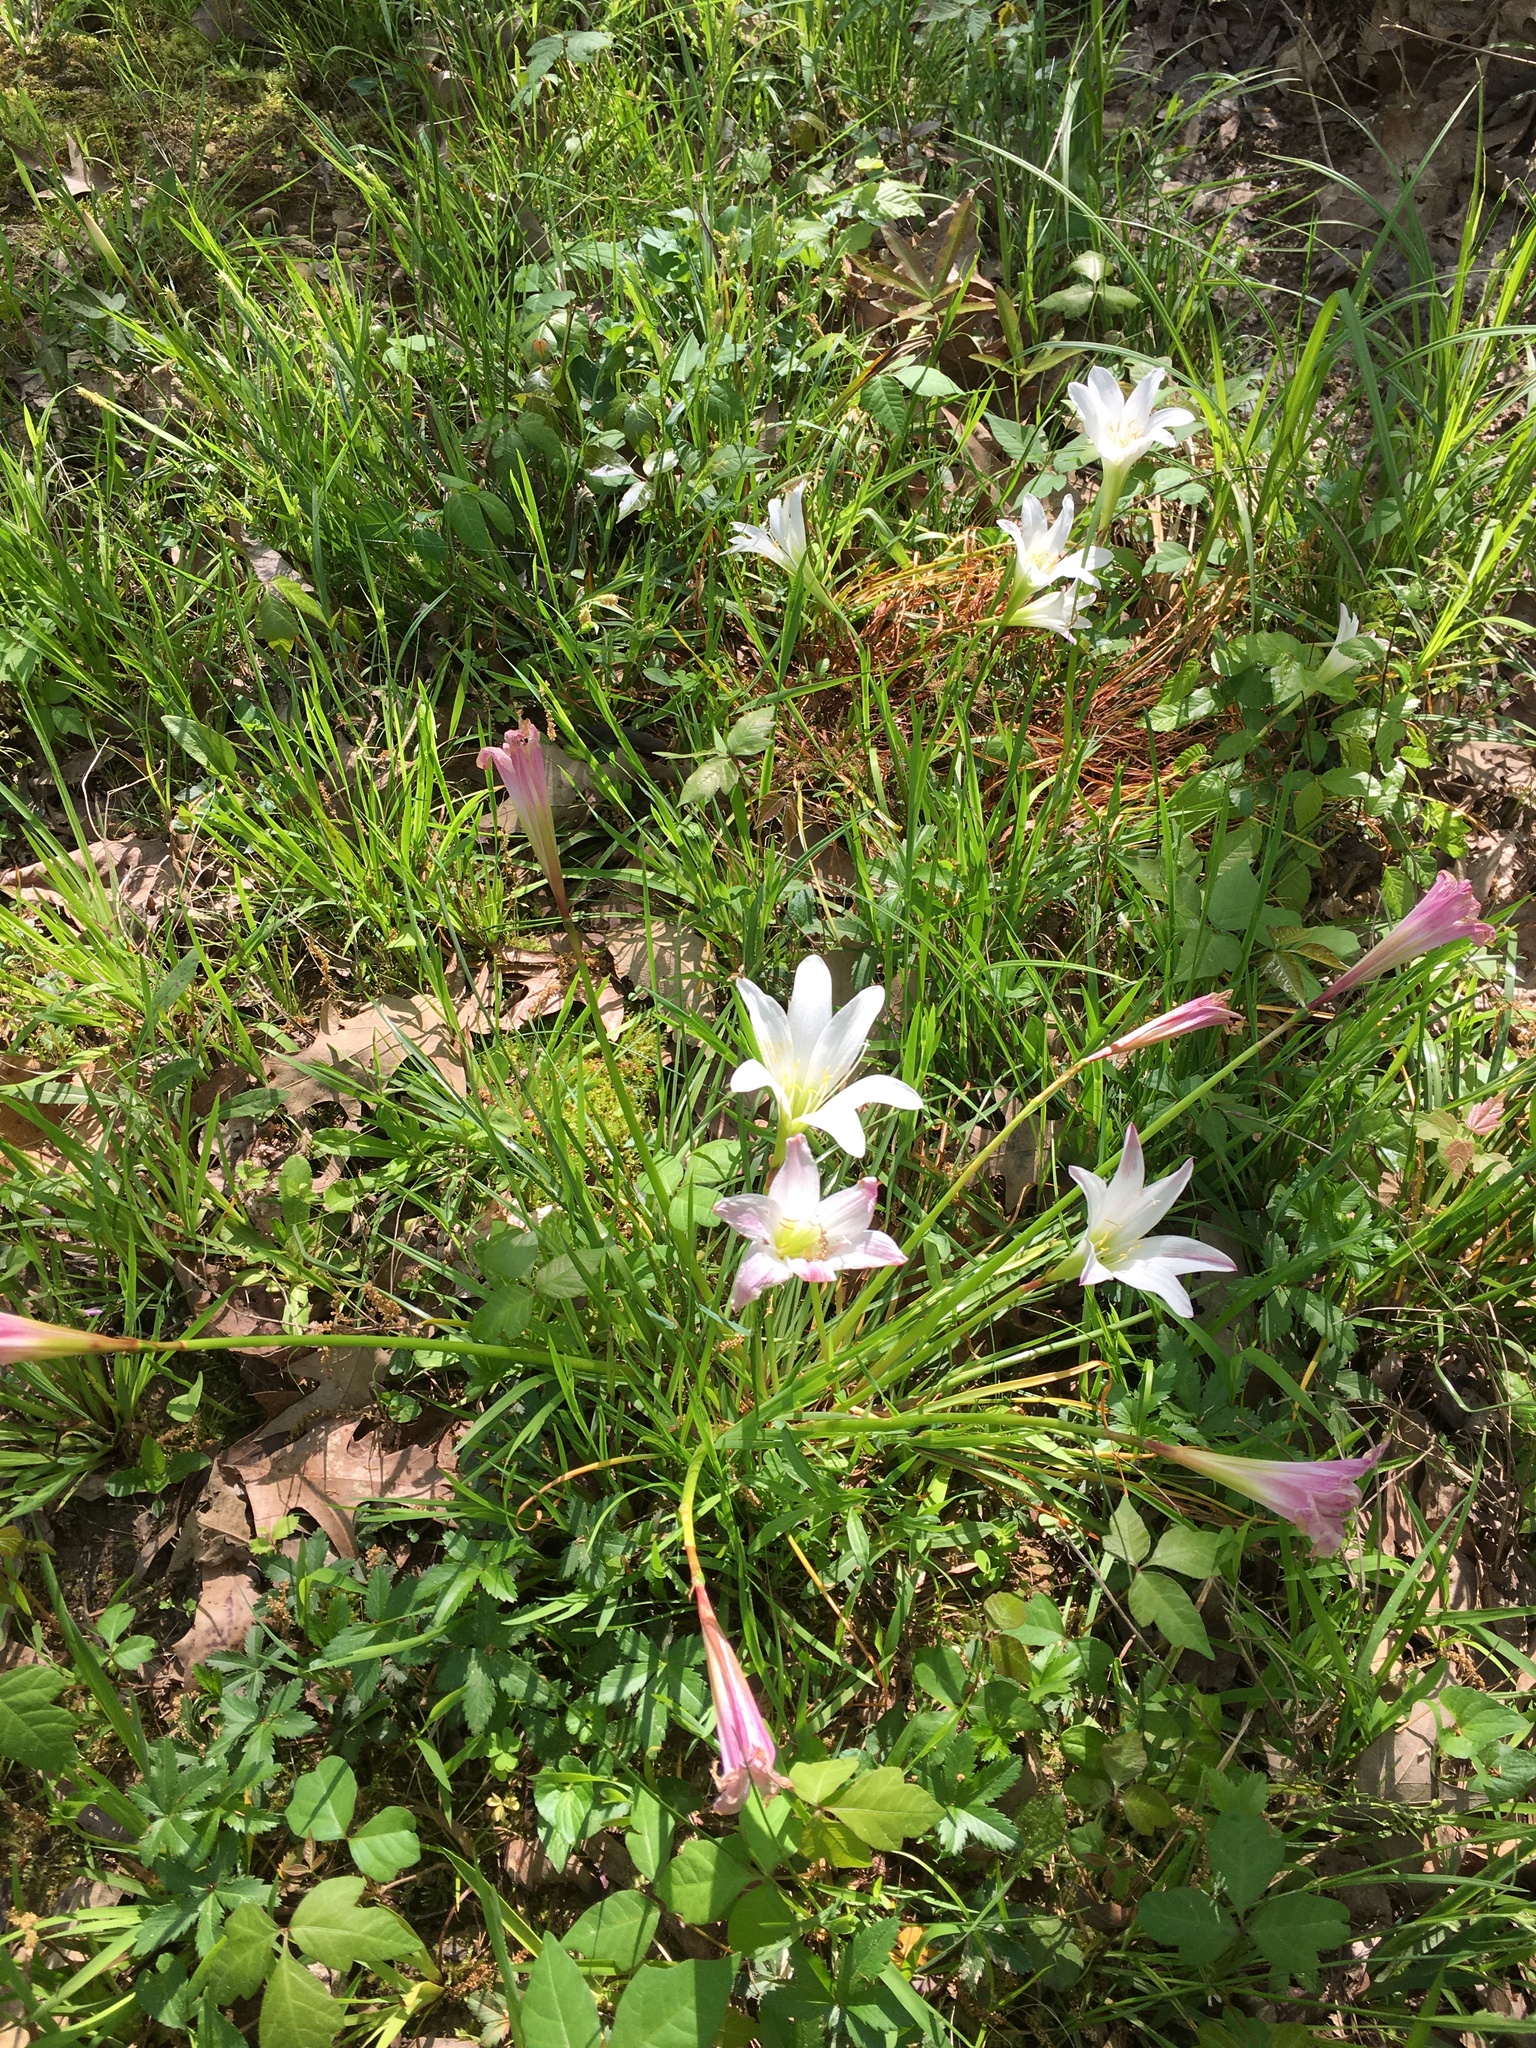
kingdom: Plantae
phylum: Tracheophyta
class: Liliopsida
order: Asparagales
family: Amaryllidaceae
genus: Zephyranthes
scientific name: Zephyranthes atamasco
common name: Atamasco lily
